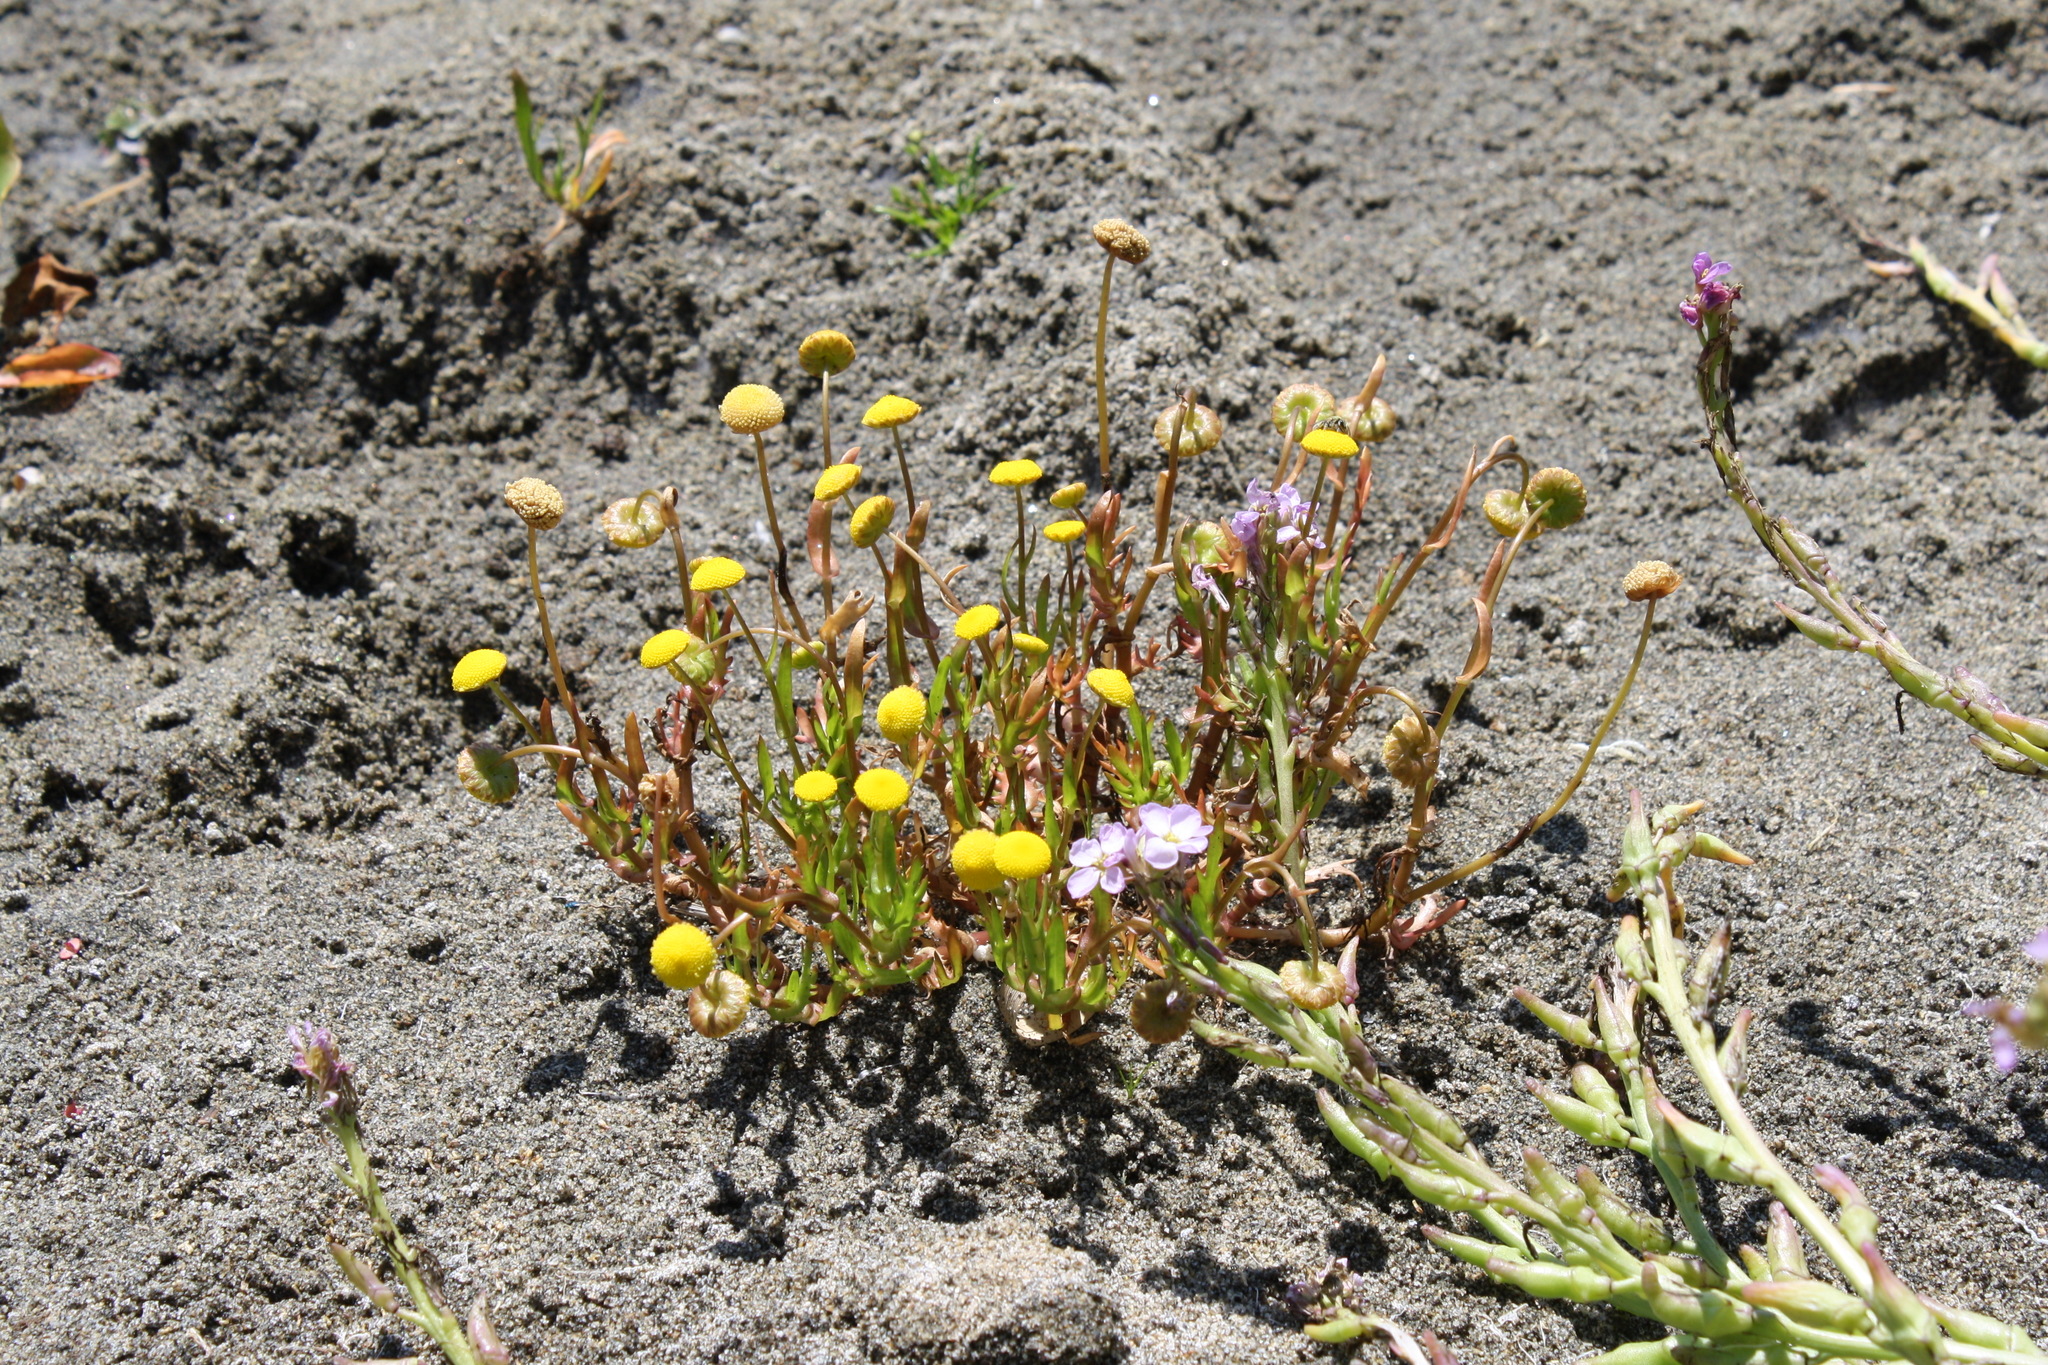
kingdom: Plantae
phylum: Tracheophyta
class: Magnoliopsida
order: Asterales
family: Asteraceae
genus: Cotula
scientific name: Cotula coronopifolia
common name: Buttonweed
